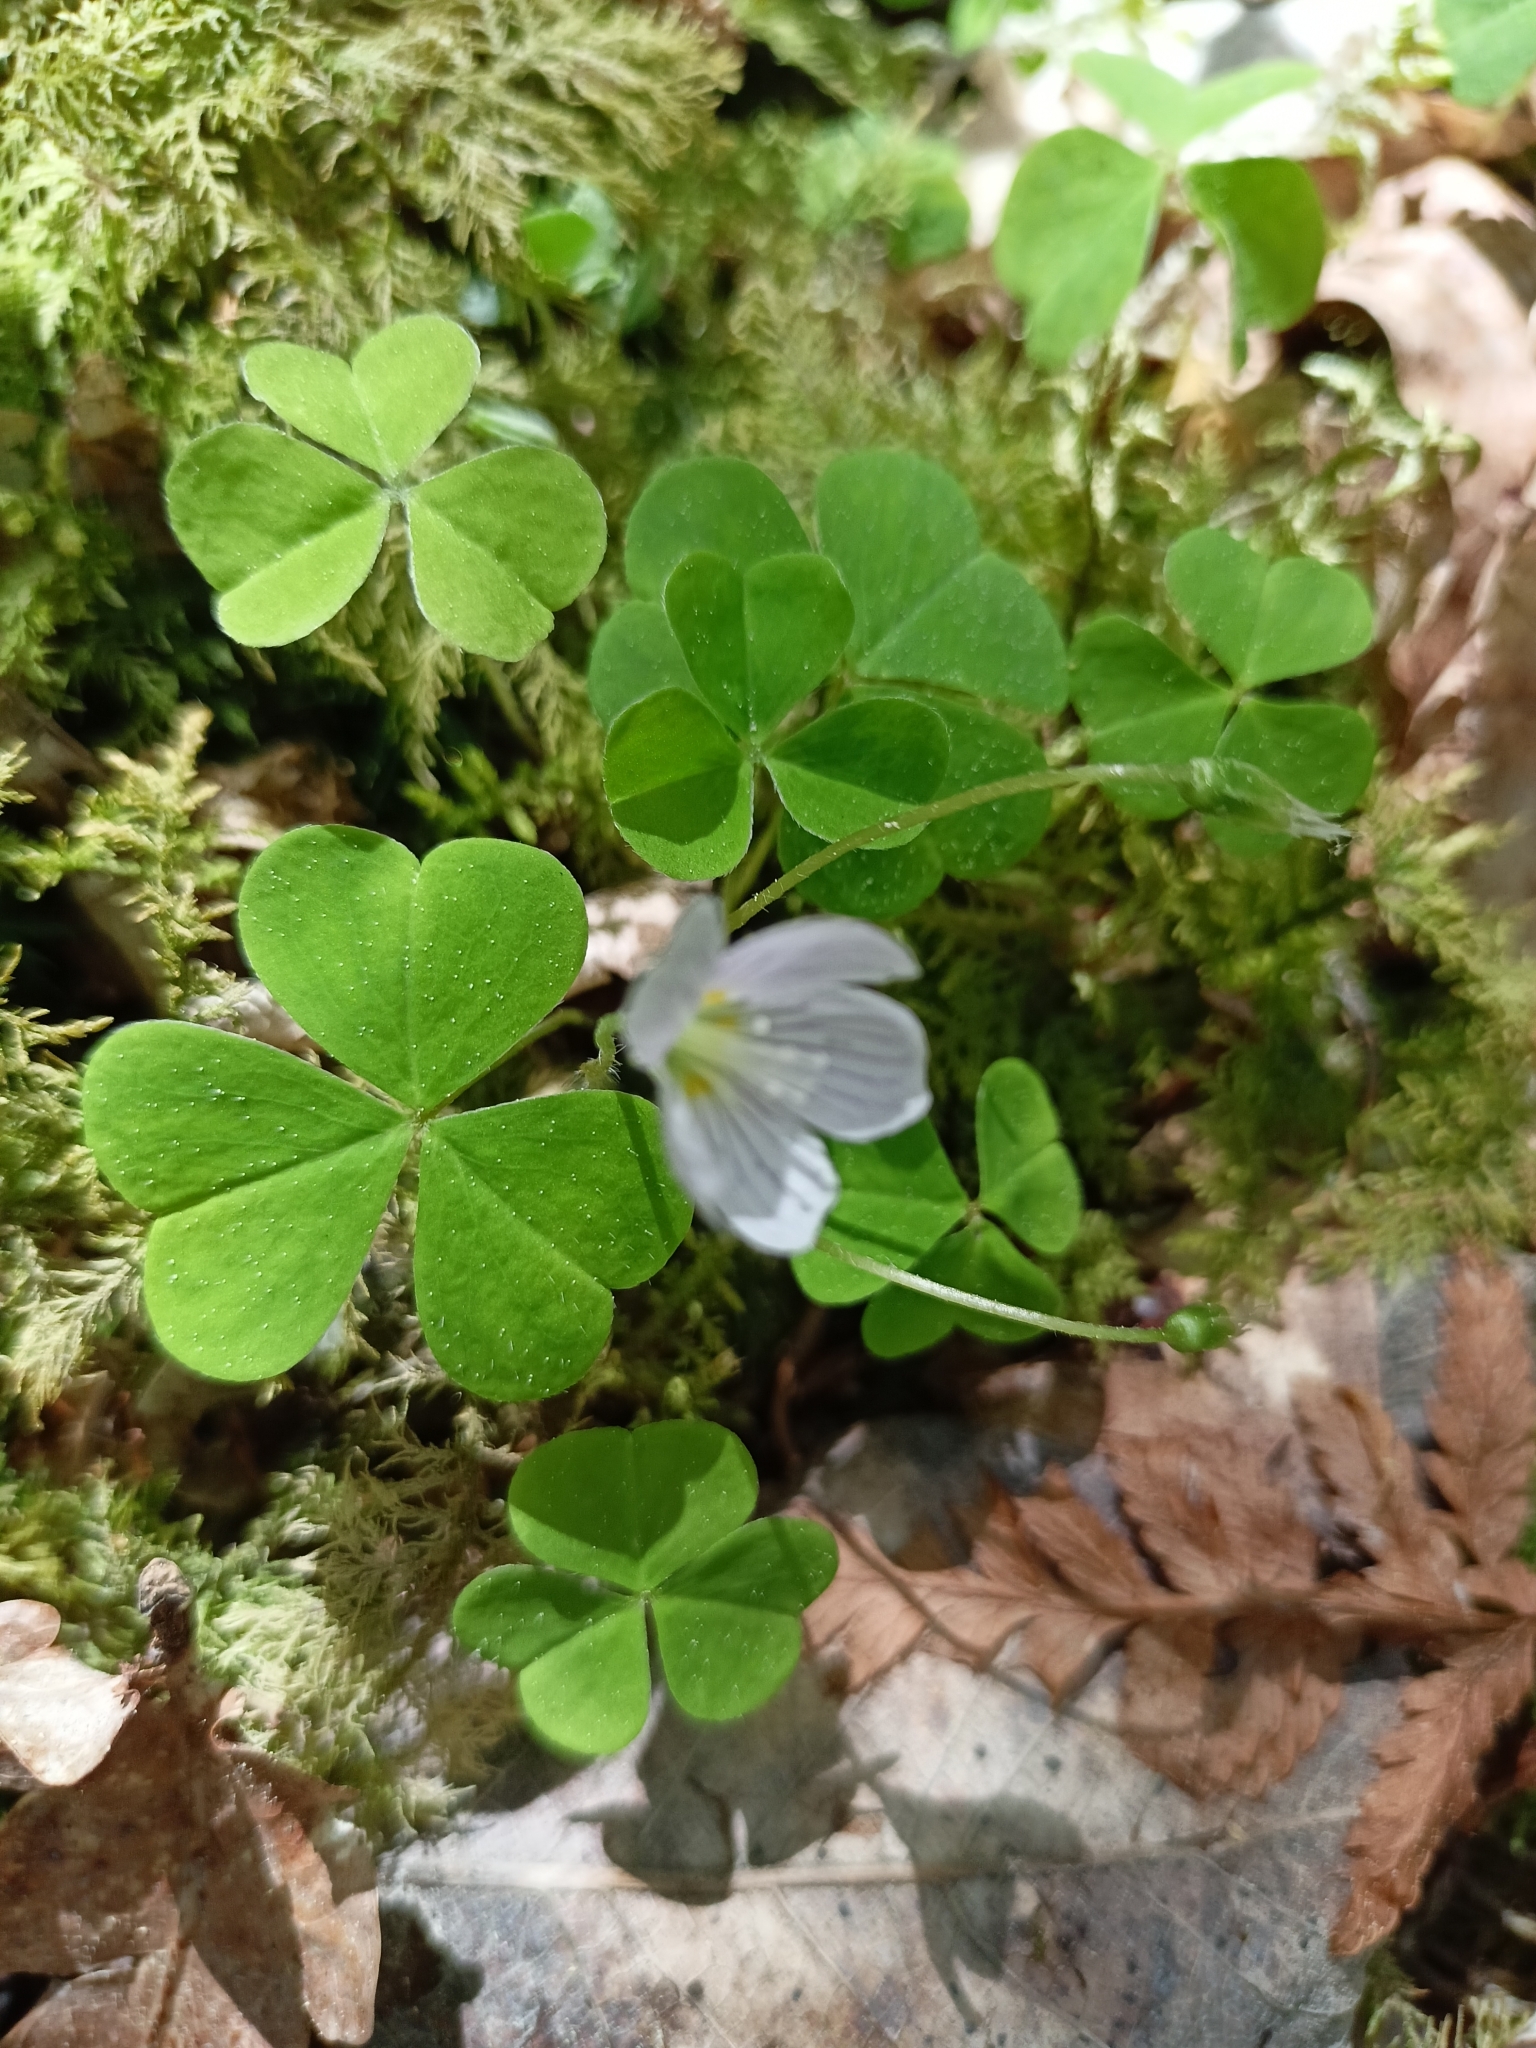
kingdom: Plantae
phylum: Tracheophyta
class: Magnoliopsida
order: Oxalidales
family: Oxalidaceae
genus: Oxalis
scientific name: Oxalis acetosella
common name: Wood-sorrel
